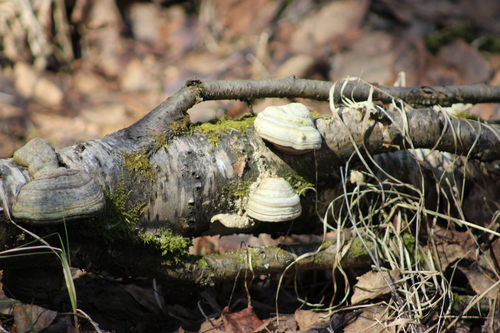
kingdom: Fungi
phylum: Basidiomycota
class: Agaricomycetes
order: Polyporales
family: Polyporaceae
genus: Fomes
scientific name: Fomes fomentarius
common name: Hoof fungus
